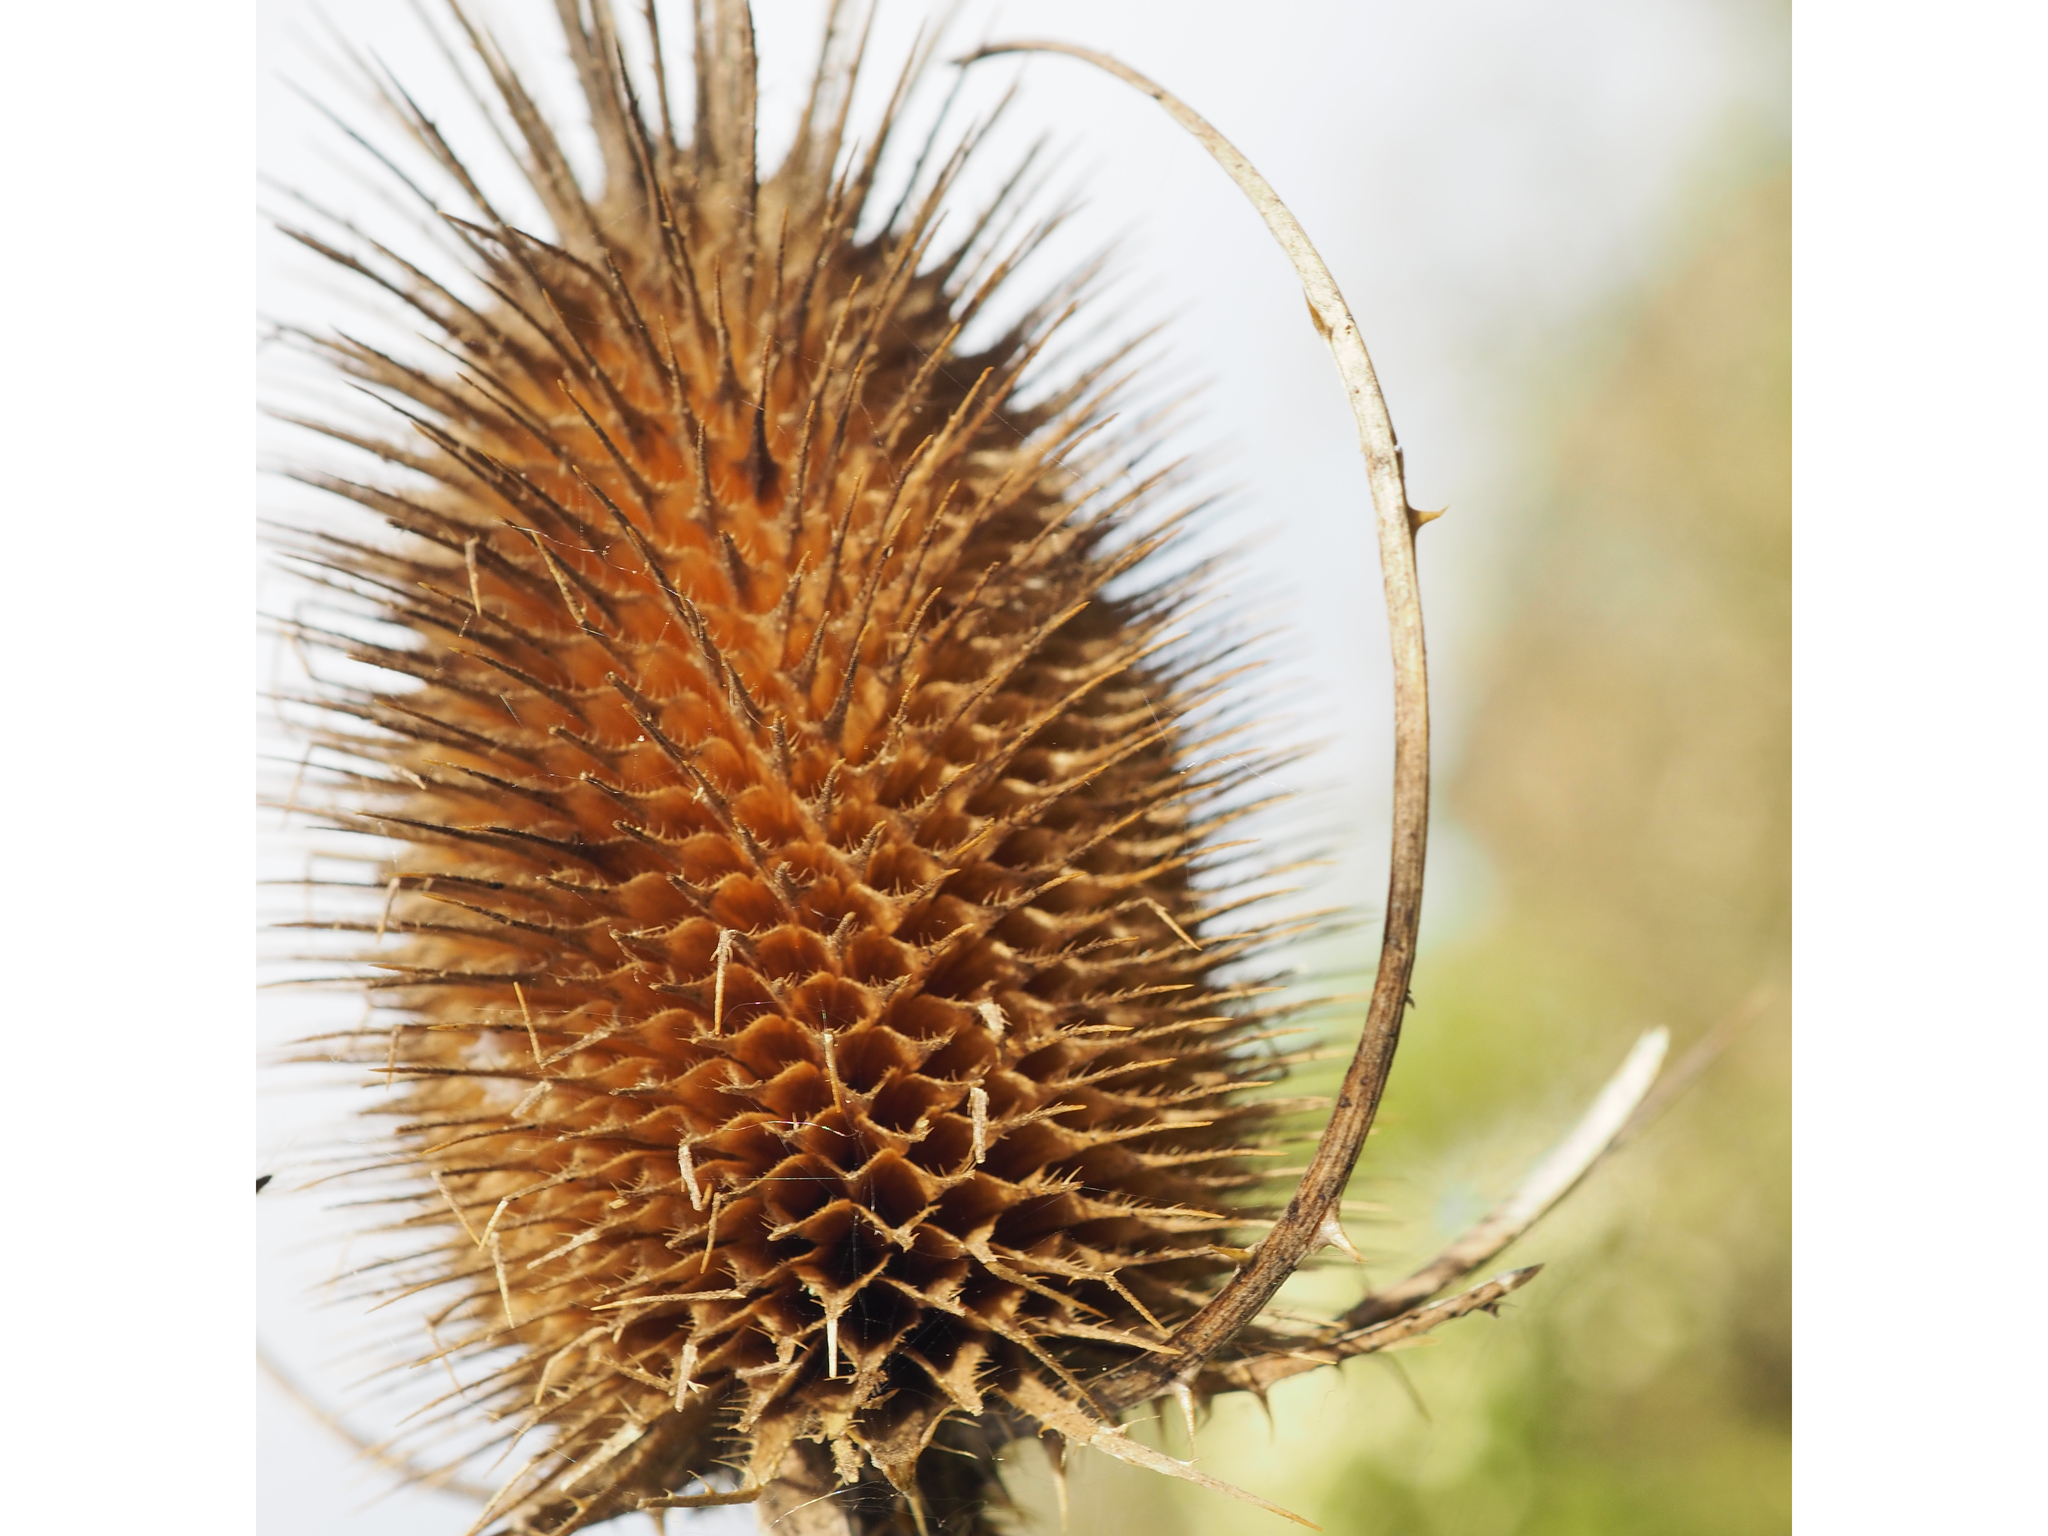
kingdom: Plantae
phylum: Tracheophyta
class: Magnoliopsida
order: Dipsacales
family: Caprifoliaceae
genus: Dipsacus
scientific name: Dipsacus fullonum
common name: Teasel
